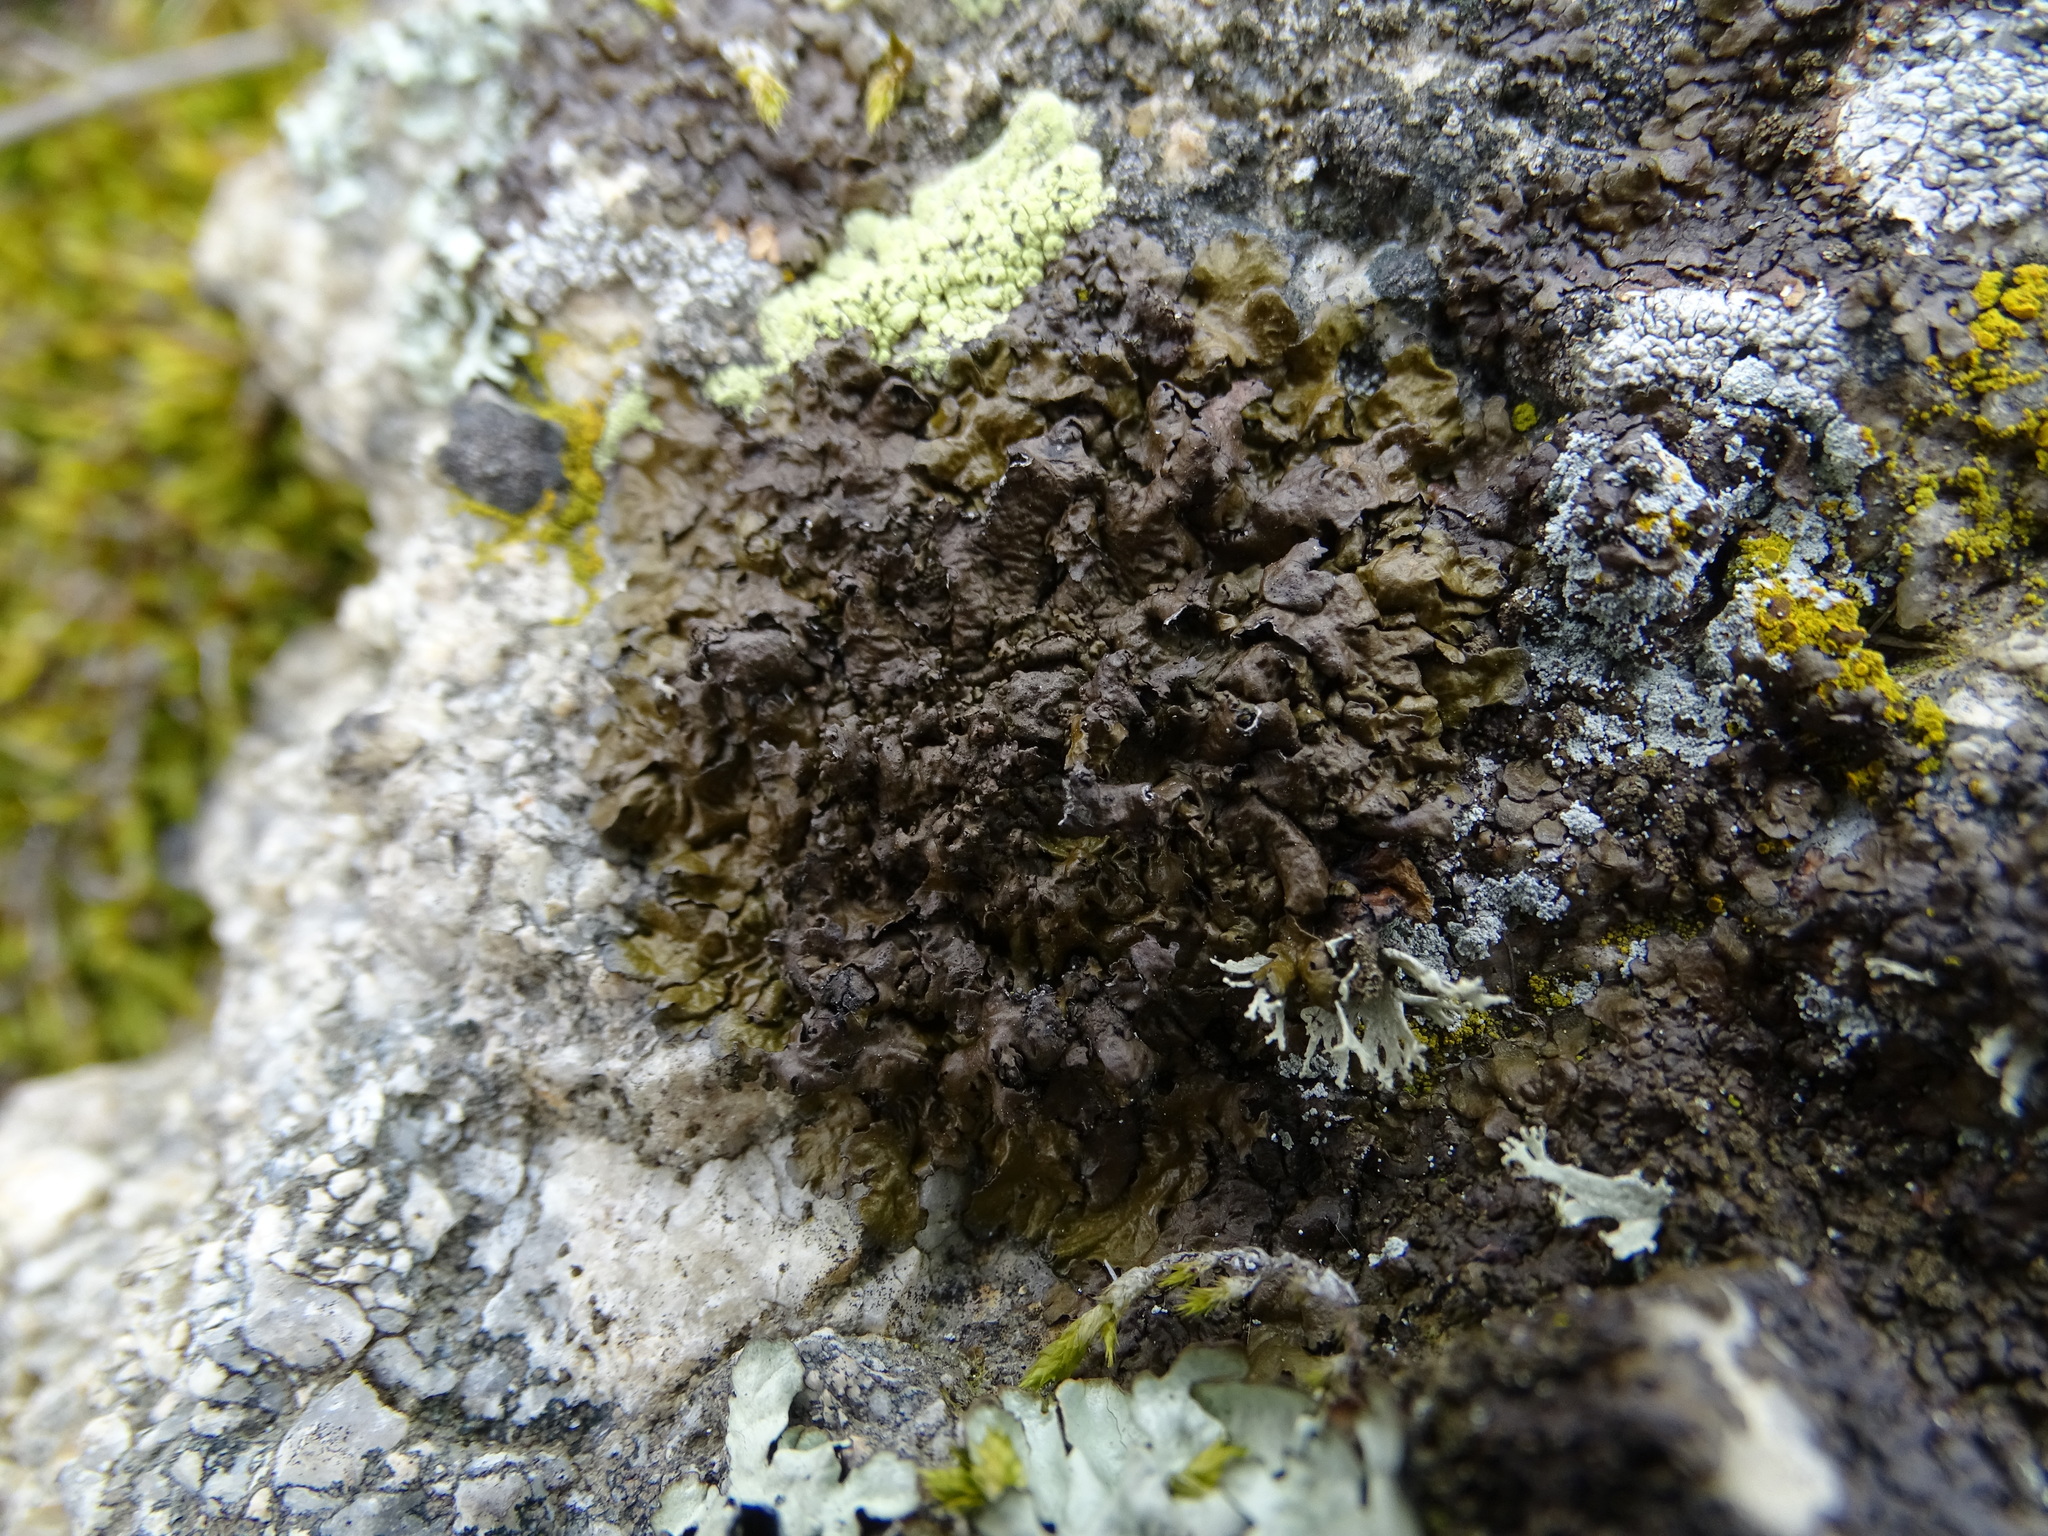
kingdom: Fungi
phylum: Ascomycota
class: Lecanoromycetes
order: Lecanorales
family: Parmeliaceae
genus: Xanthoparmelia
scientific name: Xanthoparmelia pulla
